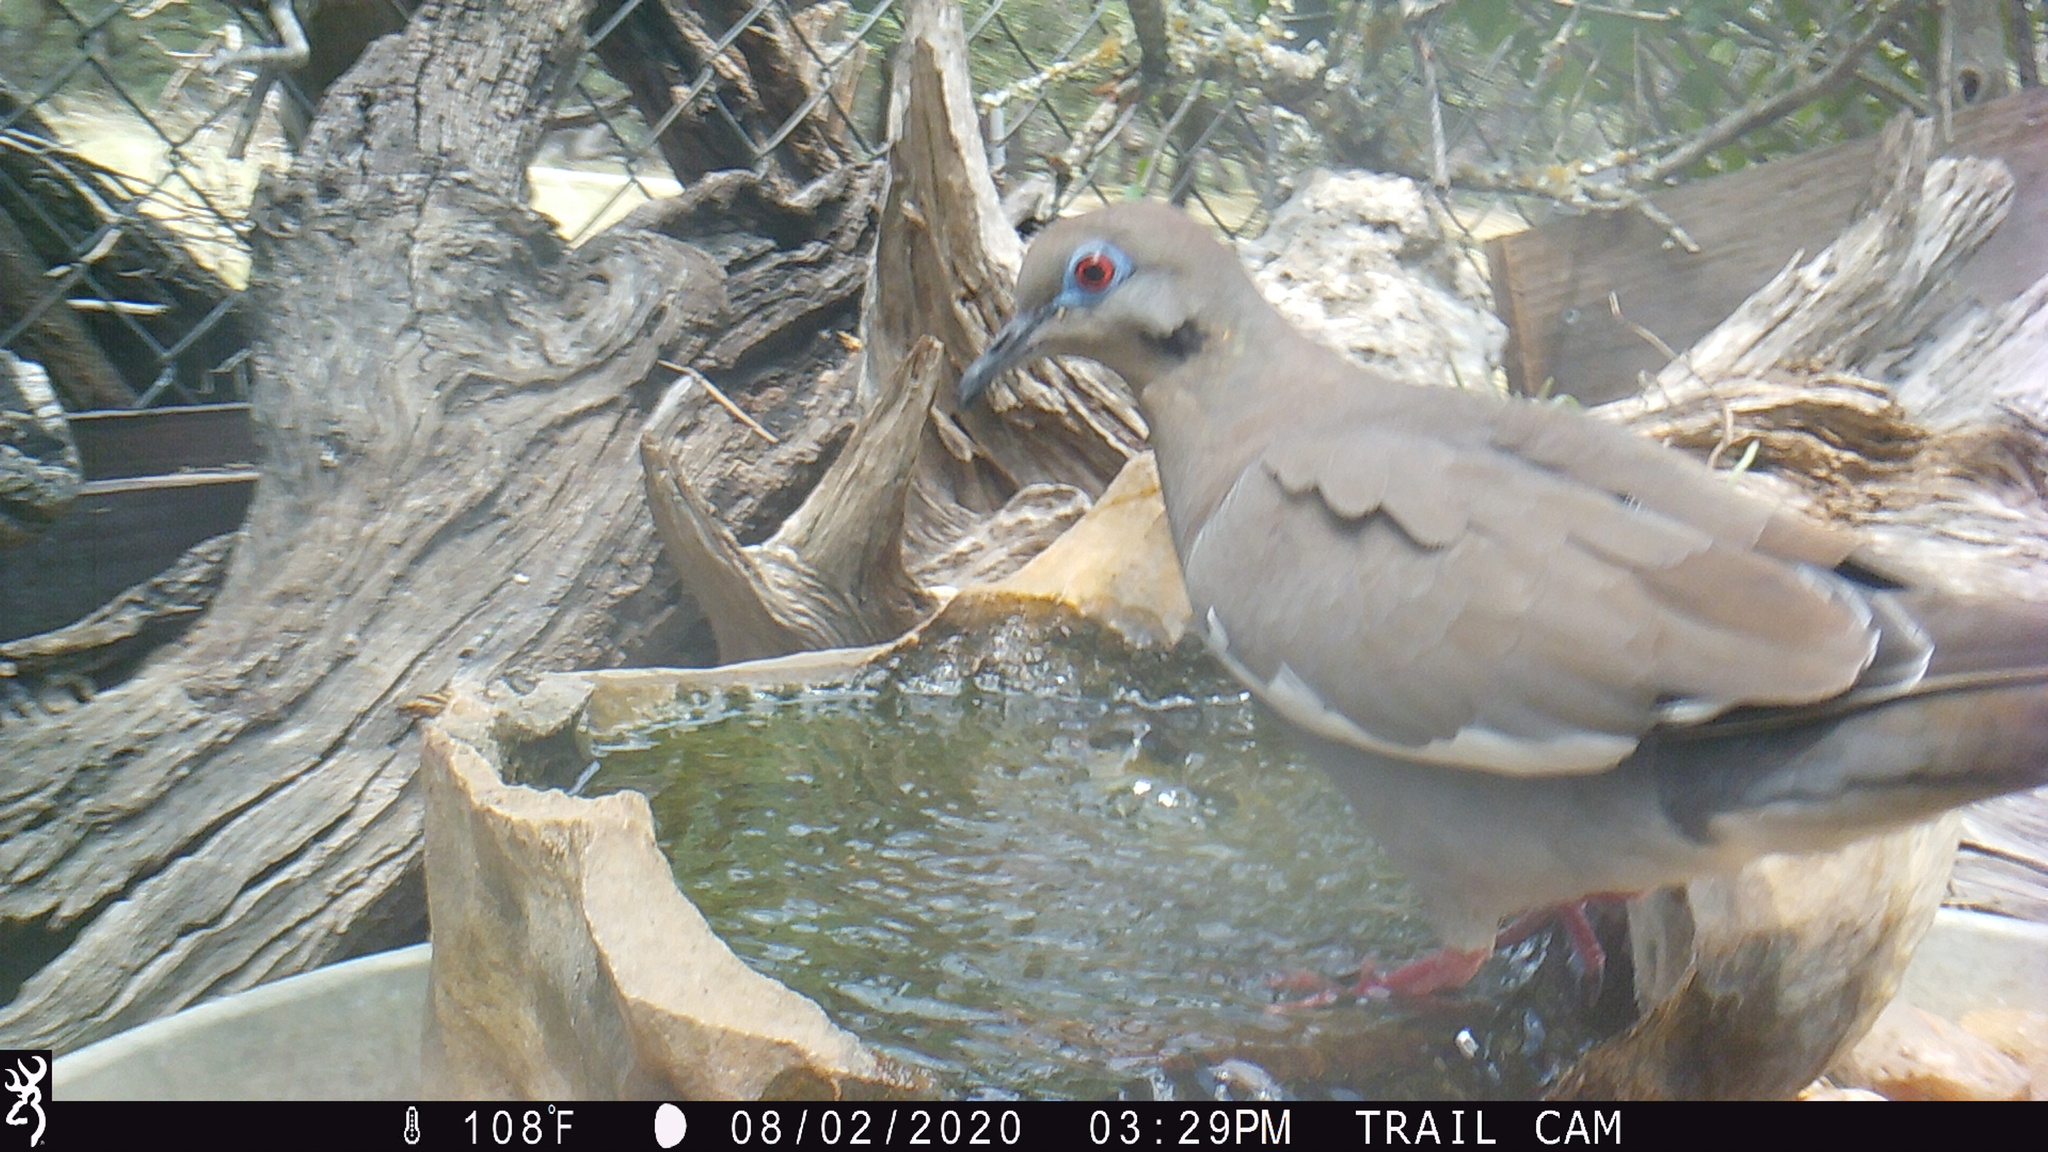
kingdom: Animalia
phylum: Chordata
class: Aves
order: Columbiformes
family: Columbidae
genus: Zenaida
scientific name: Zenaida asiatica
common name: White-winged dove
